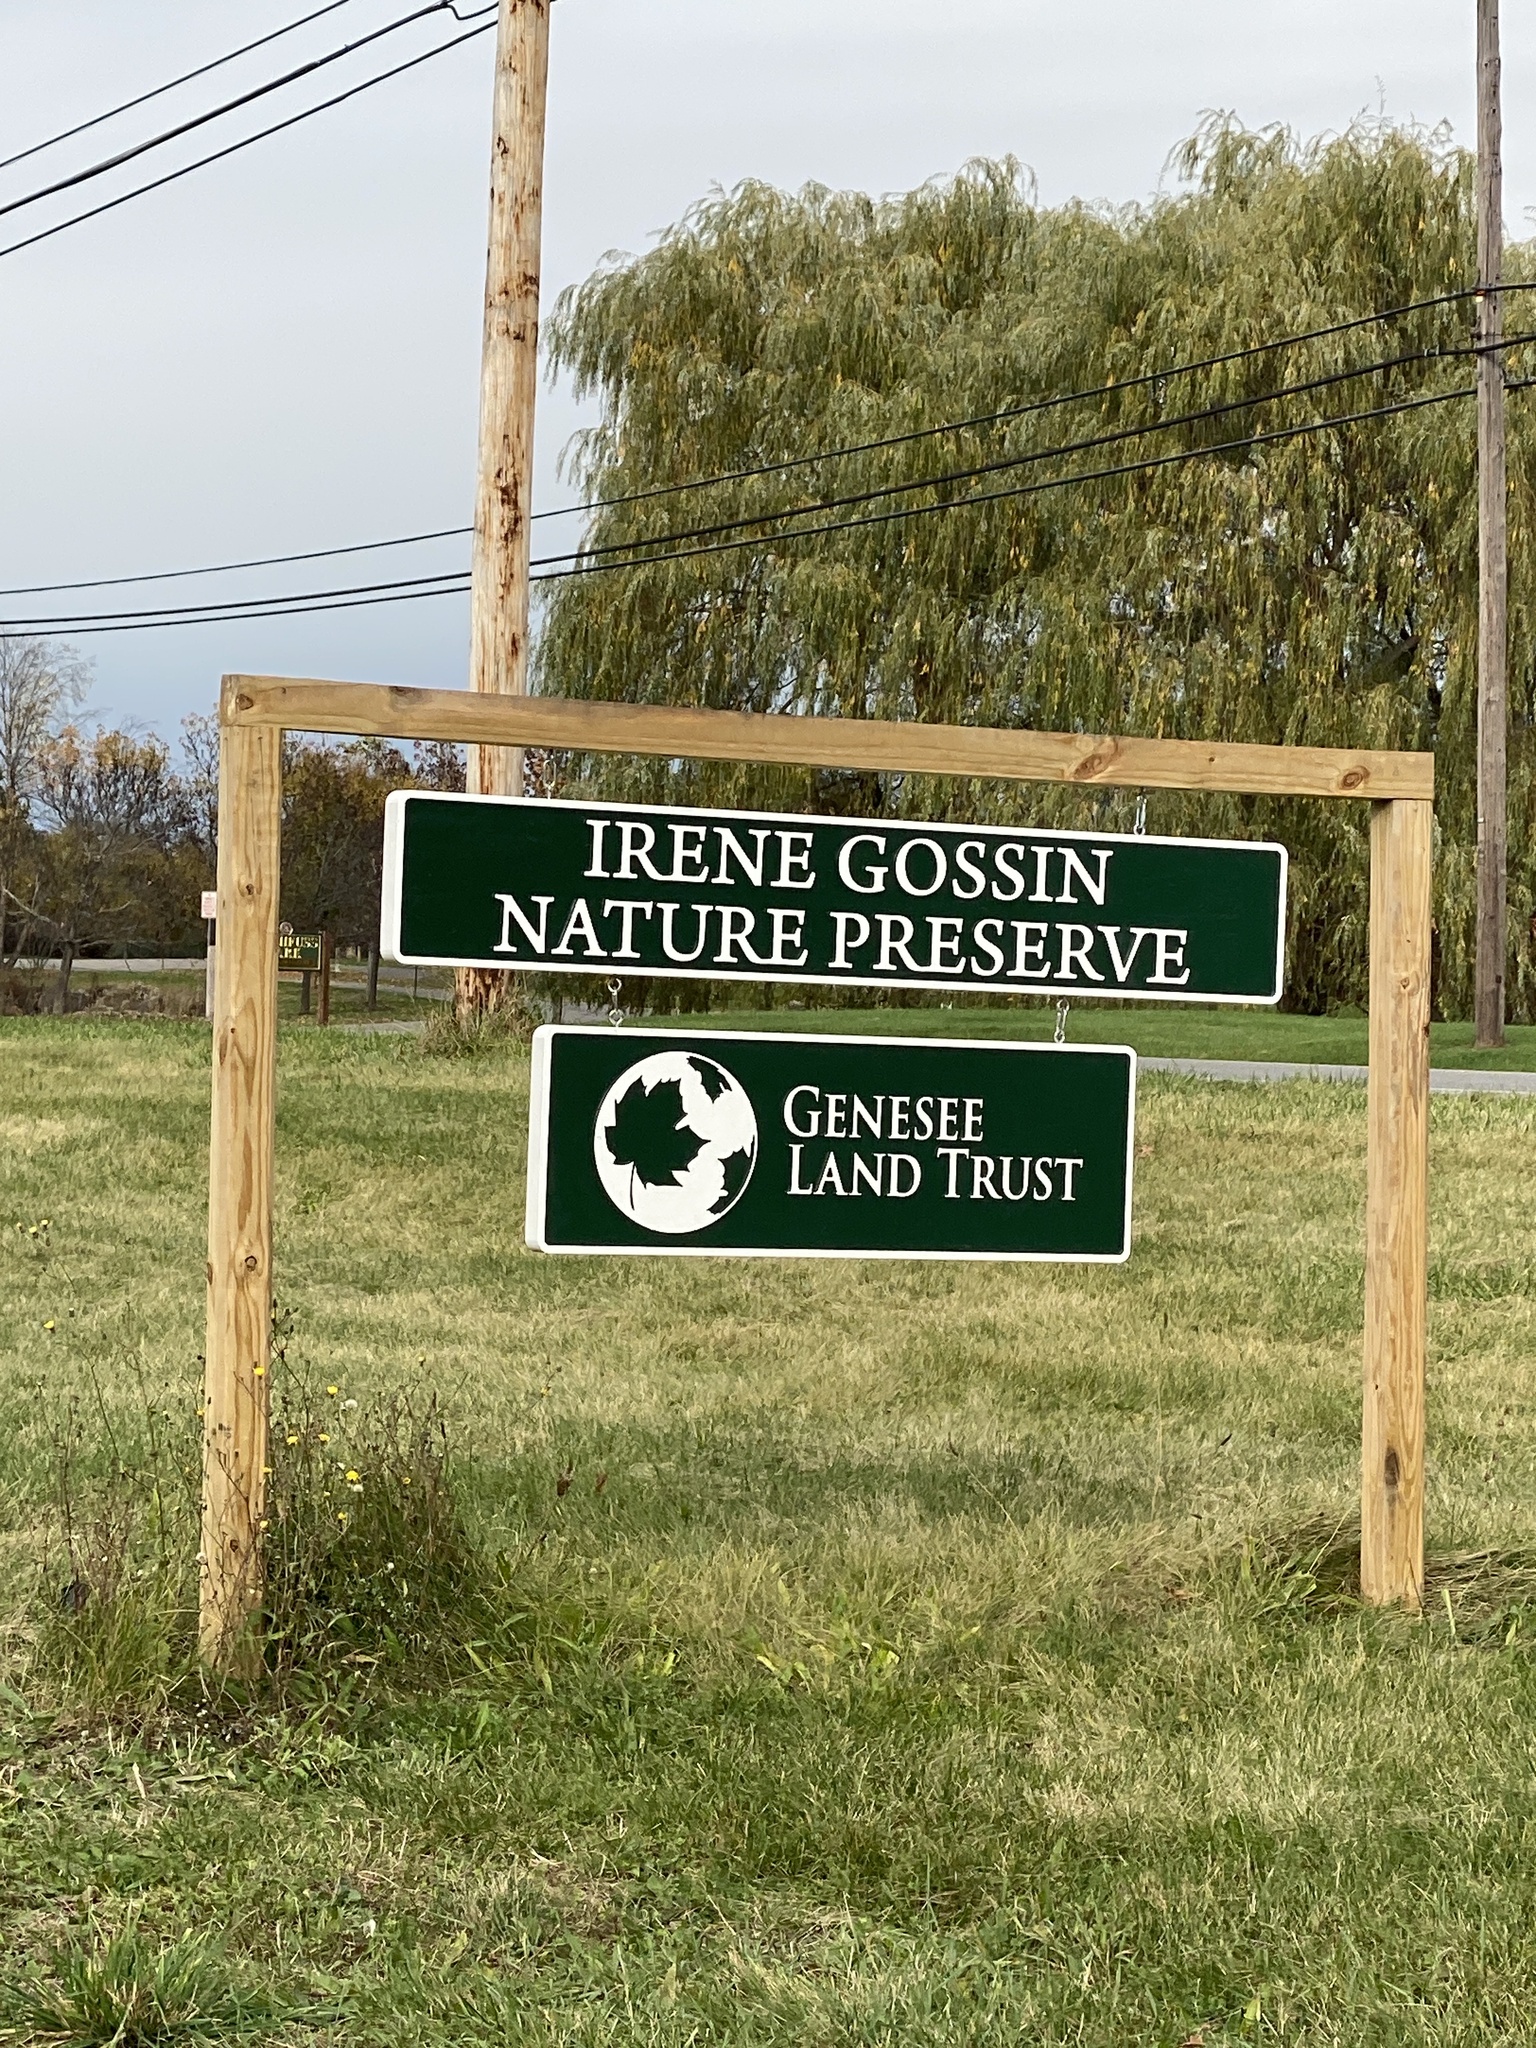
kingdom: Plantae
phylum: Tracheophyta
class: Magnoliopsida
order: Asterales
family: Asteraceae
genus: Solidago
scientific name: Solidago altissima
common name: Late goldenrod
